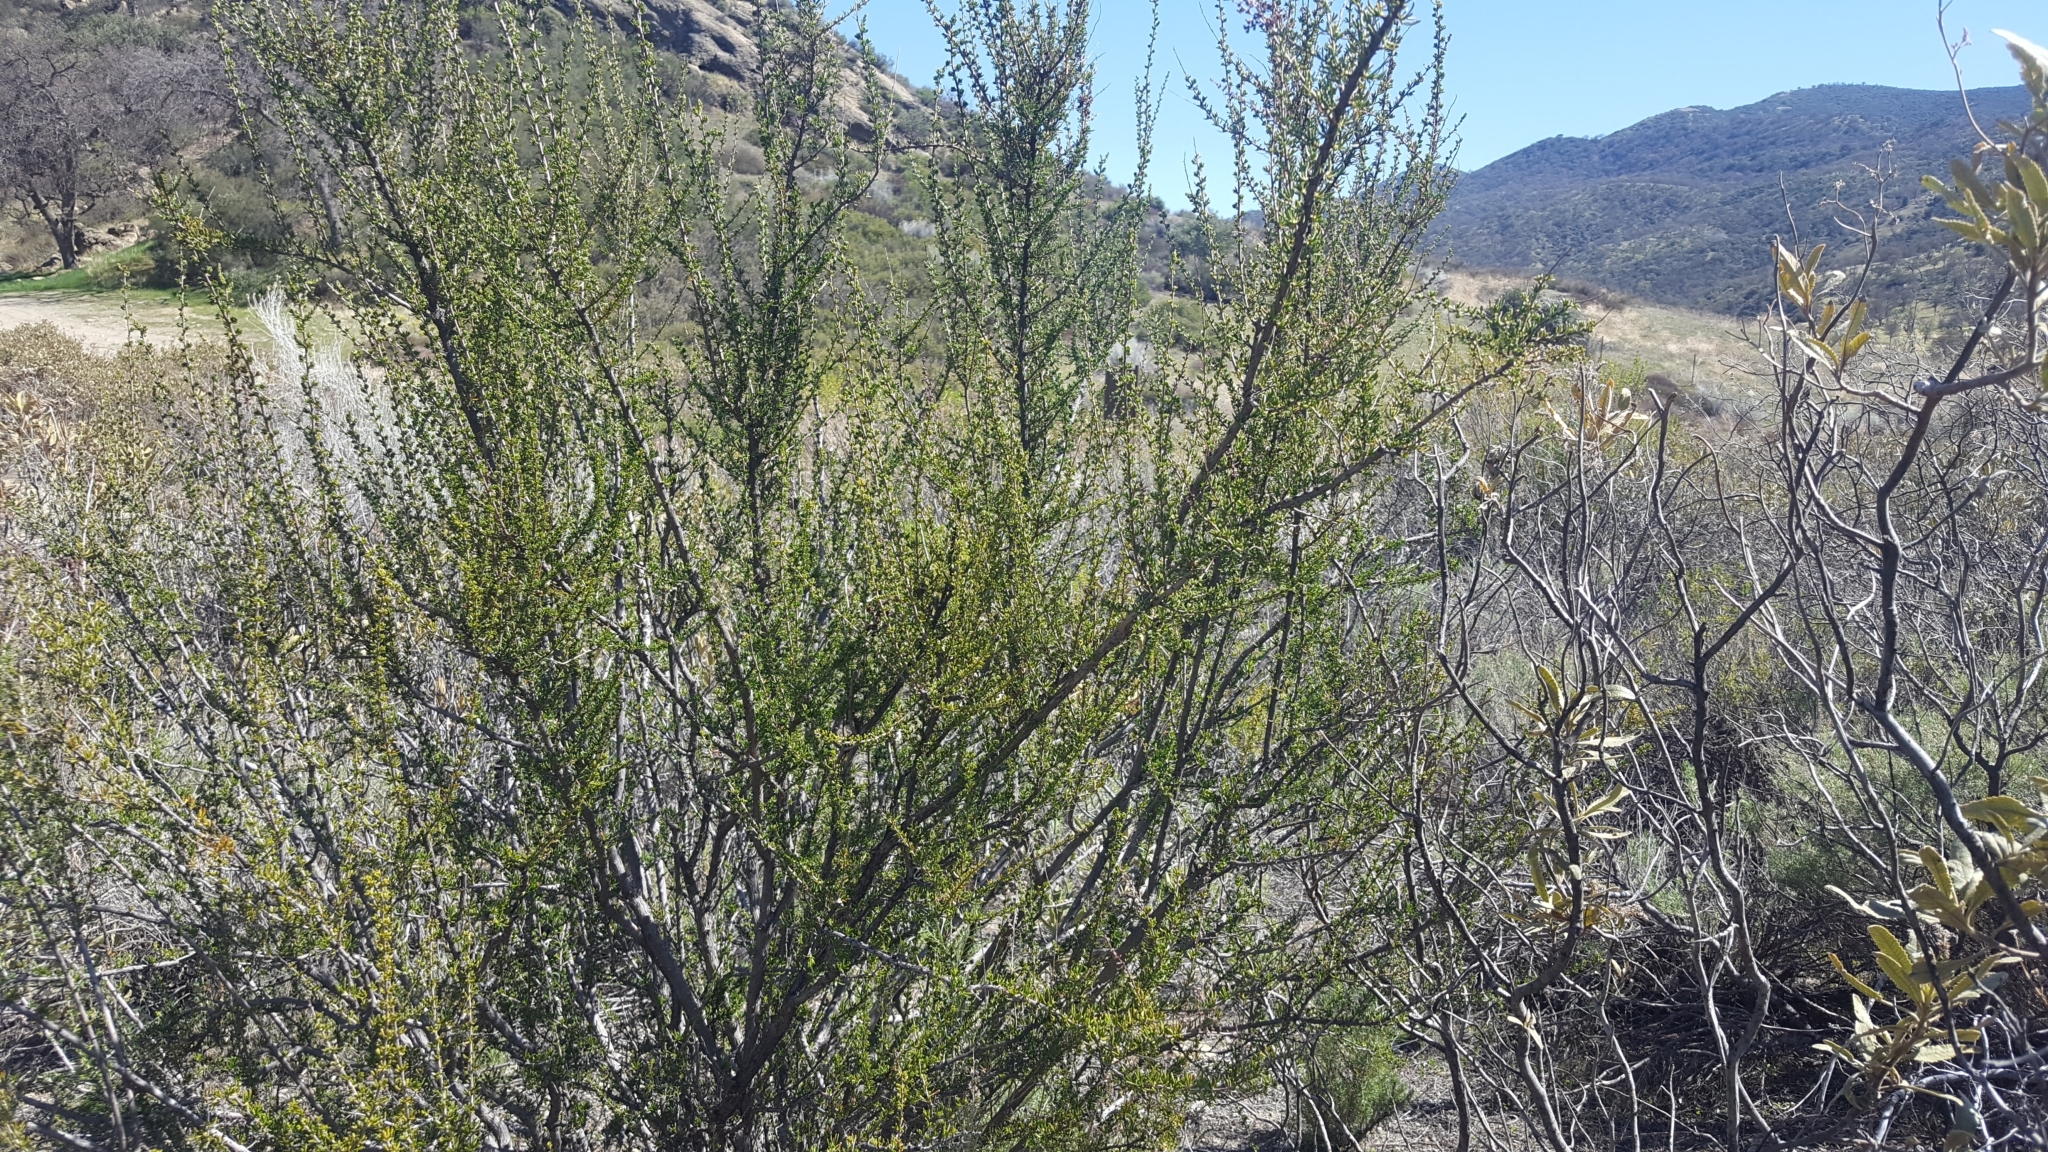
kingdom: Plantae
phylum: Tracheophyta
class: Magnoliopsida
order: Rosales
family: Rosaceae
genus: Adenostoma
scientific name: Adenostoma fasciculatum
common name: Chamise
